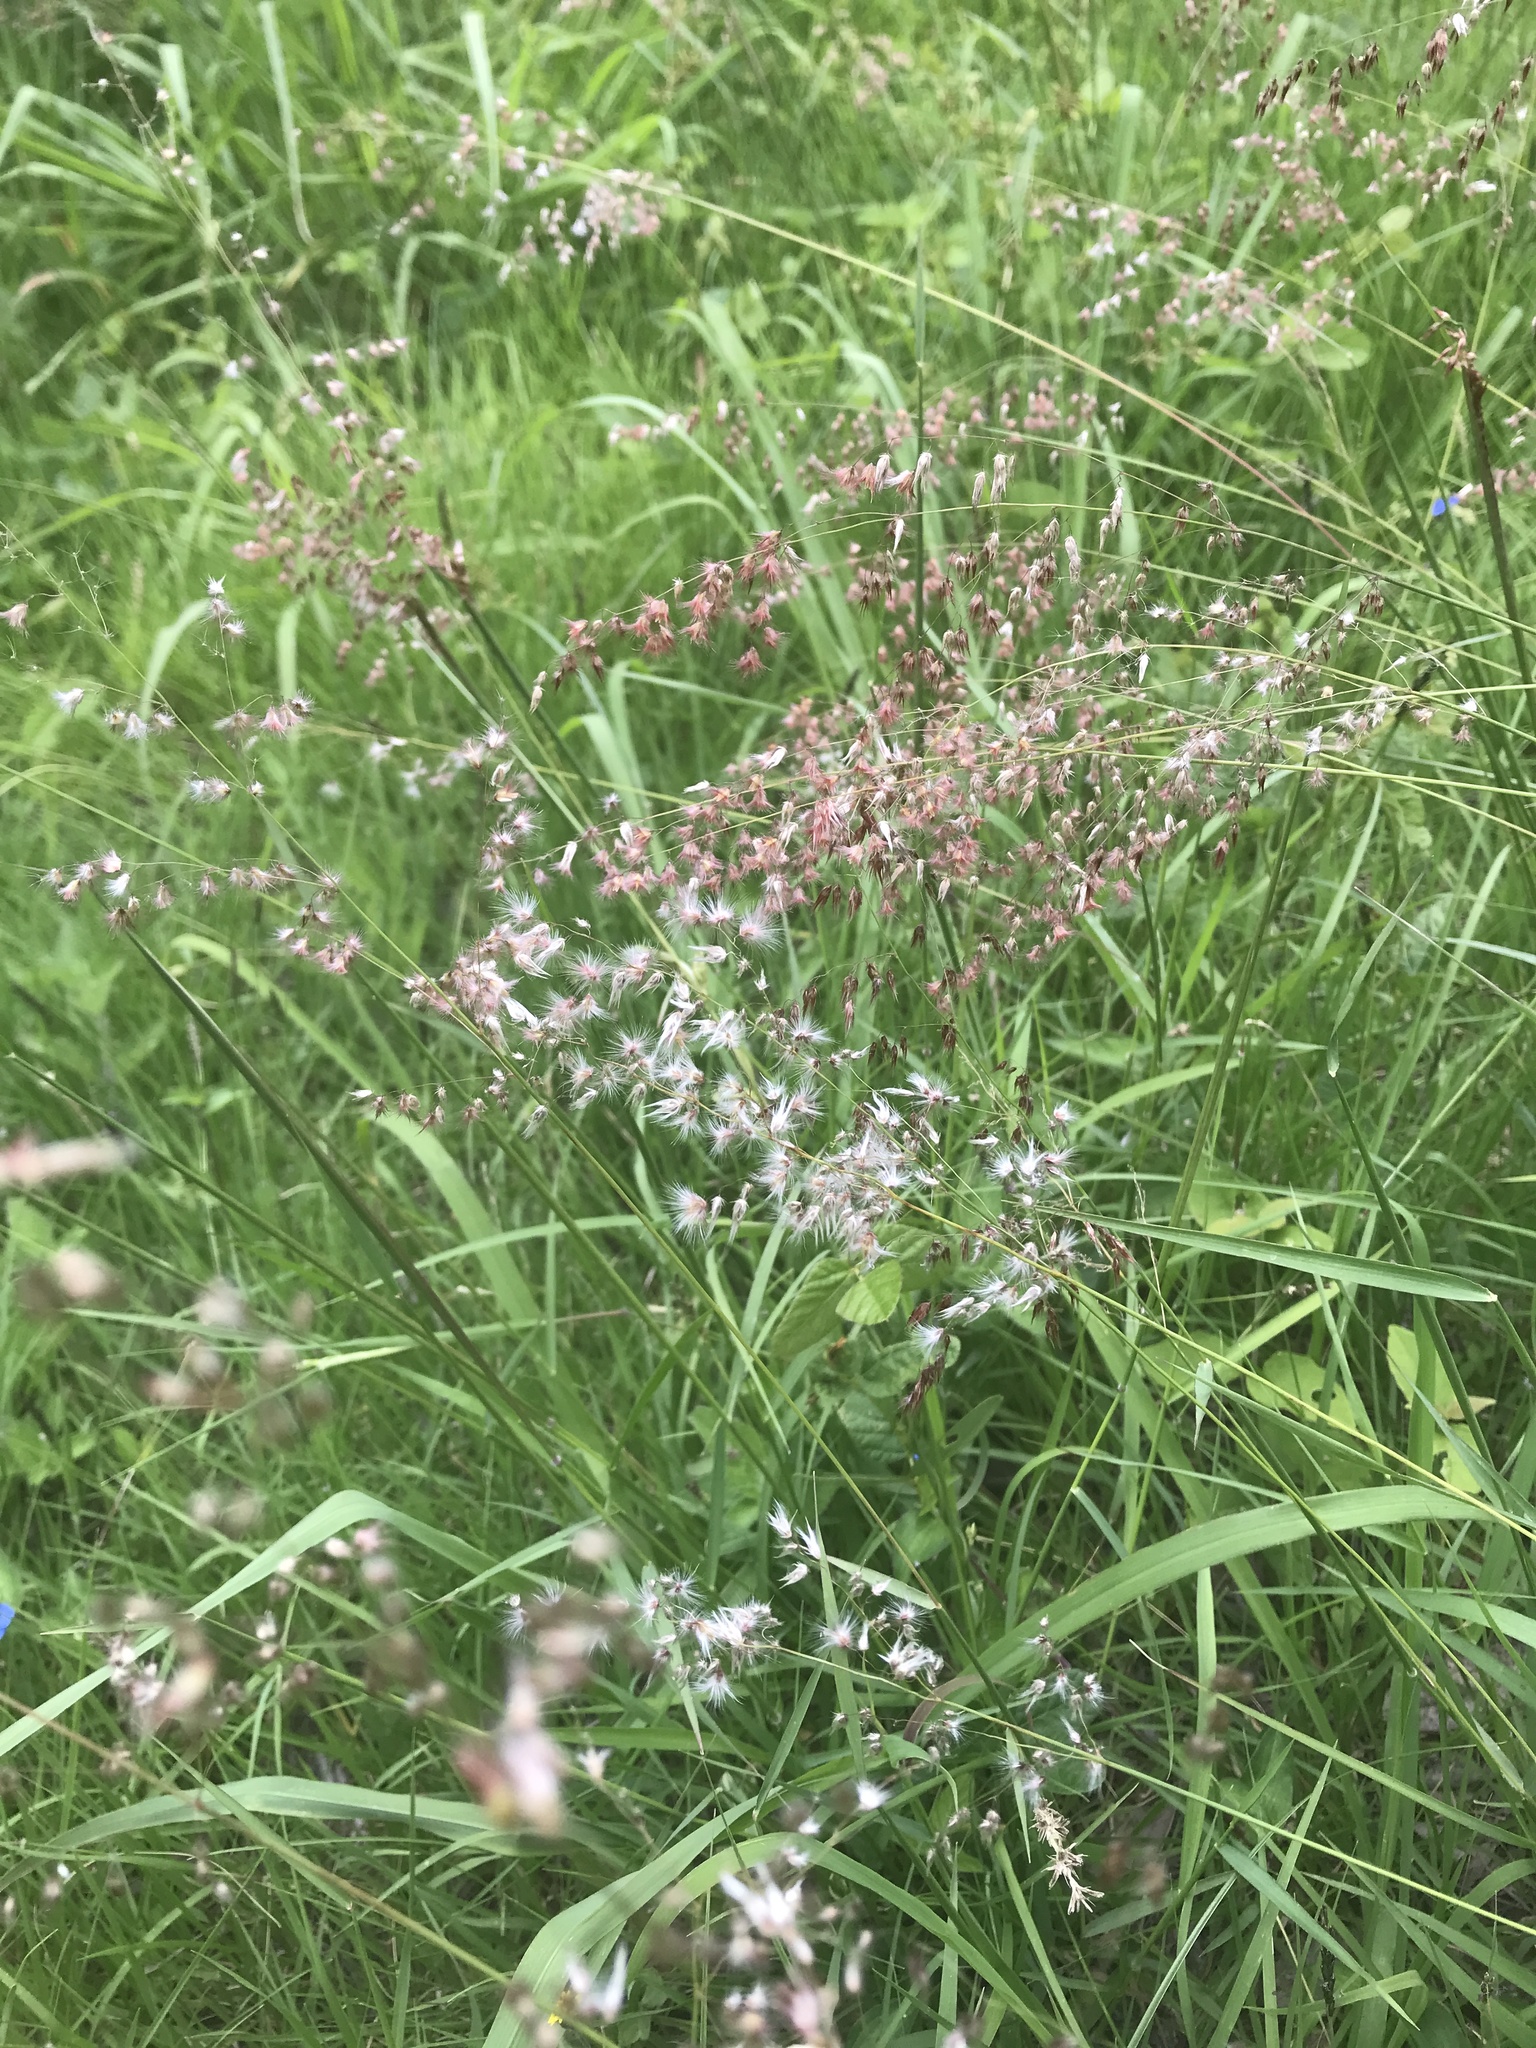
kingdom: Plantae
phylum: Tracheophyta
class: Liliopsida
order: Poales
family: Poaceae
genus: Melinis
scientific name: Melinis repens
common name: Rose natal grass
